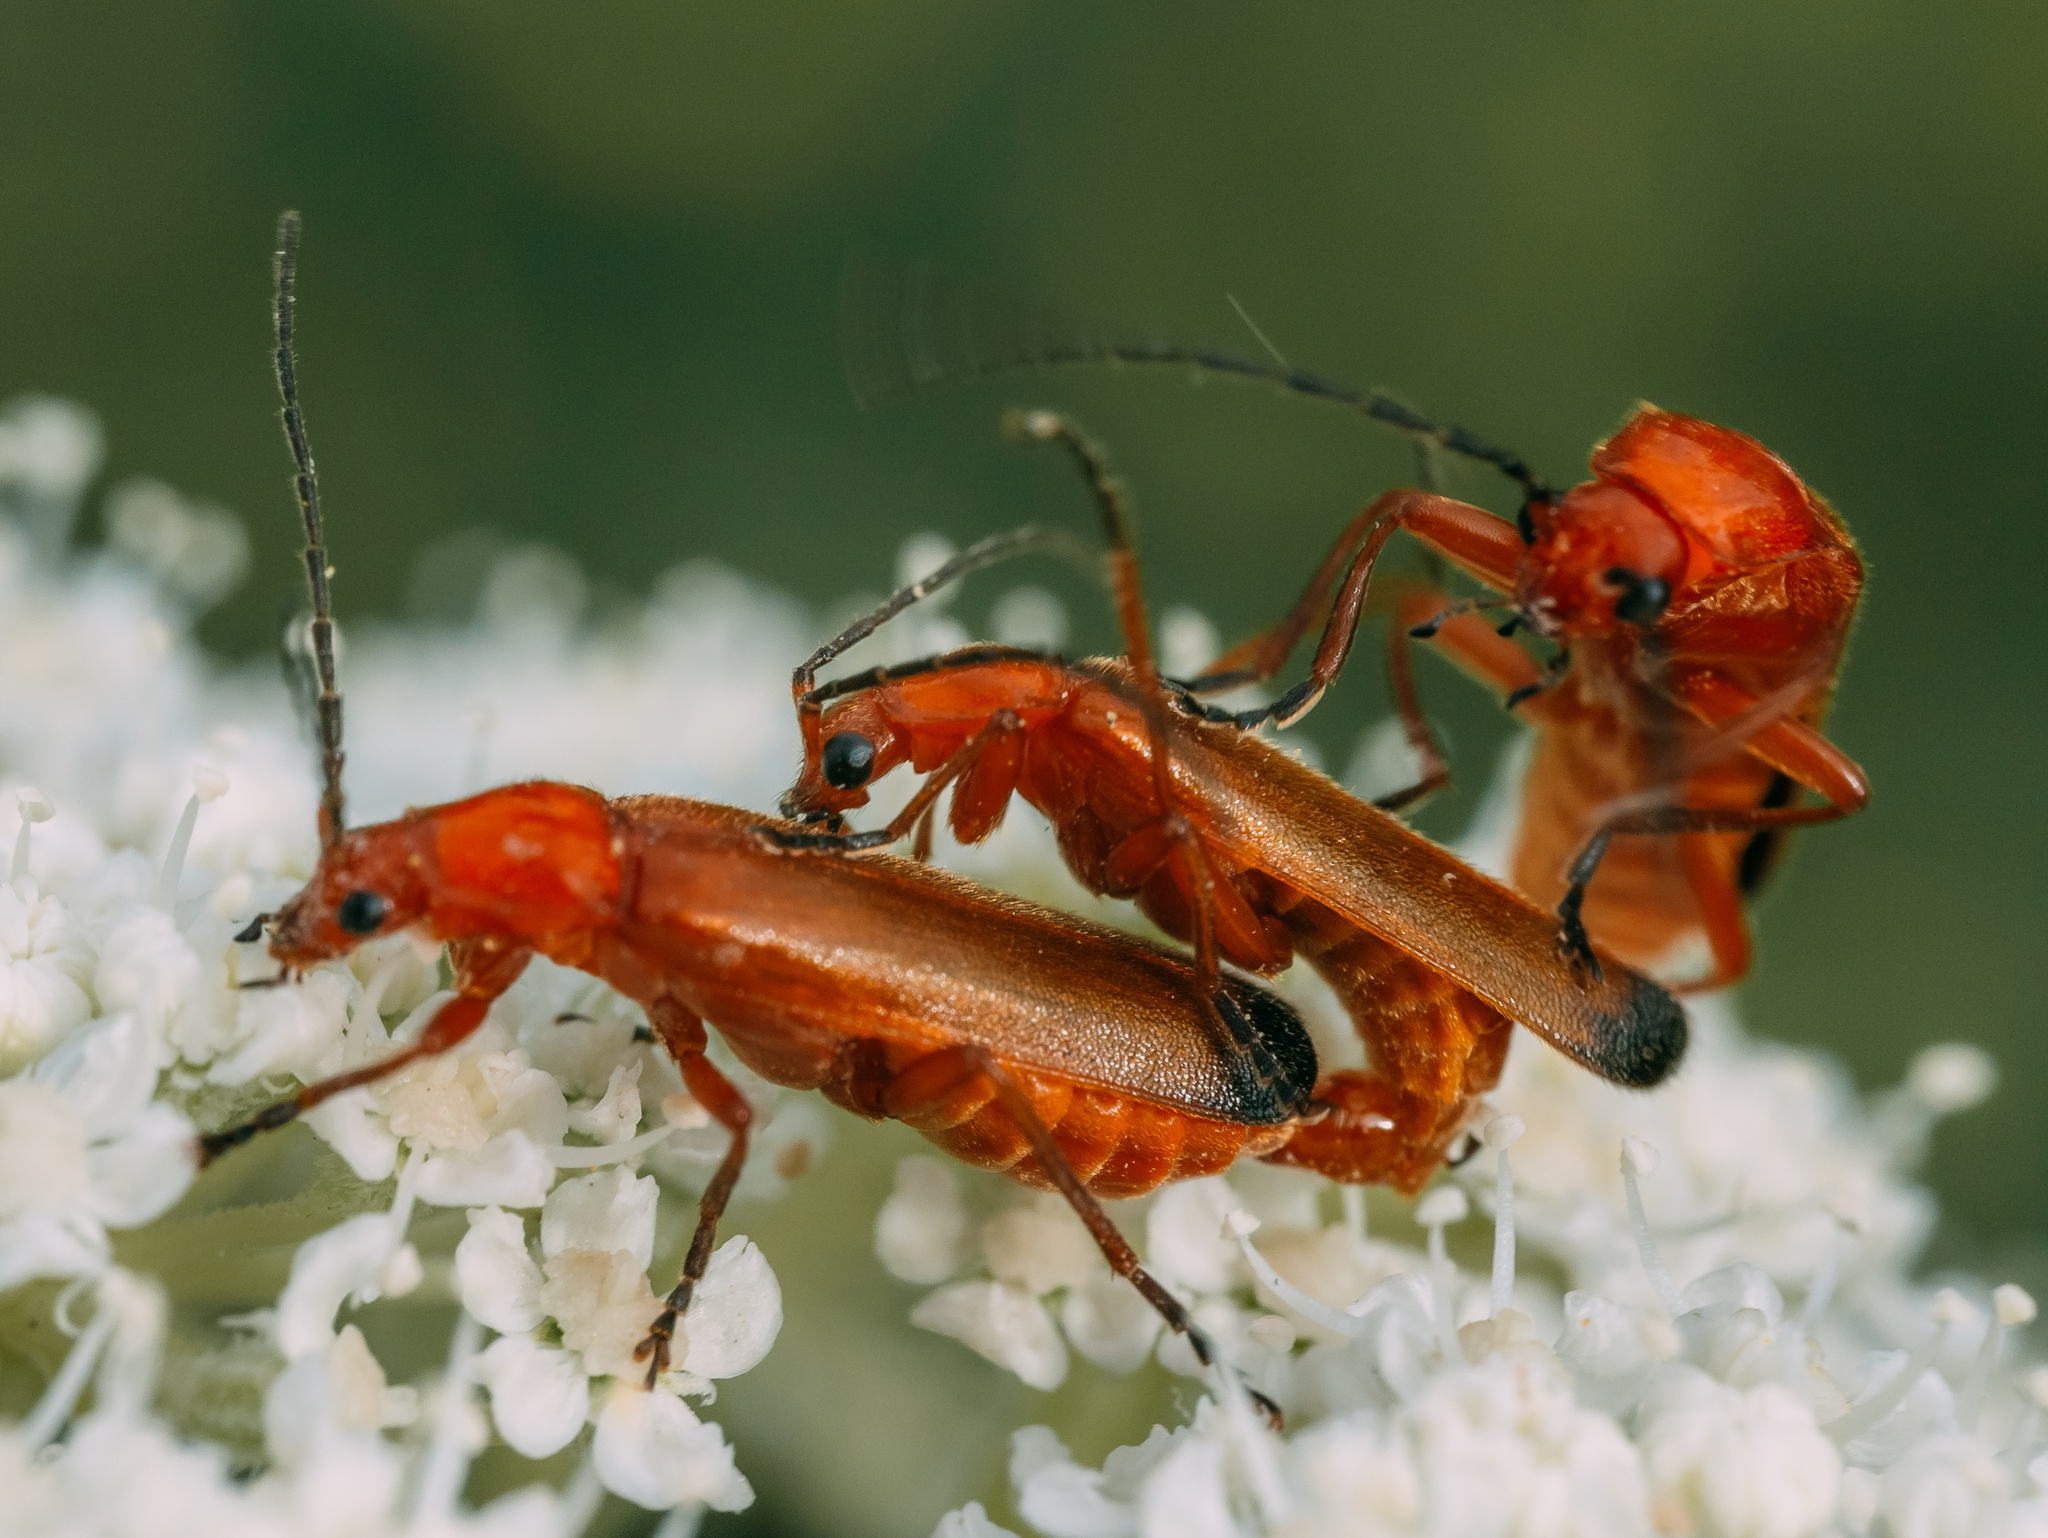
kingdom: Animalia
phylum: Arthropoda
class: Insecta
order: Coleoptera
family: Cantharidae
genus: Rhagonycha
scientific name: Rhagonycha fulva
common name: Common red soldier beetle
